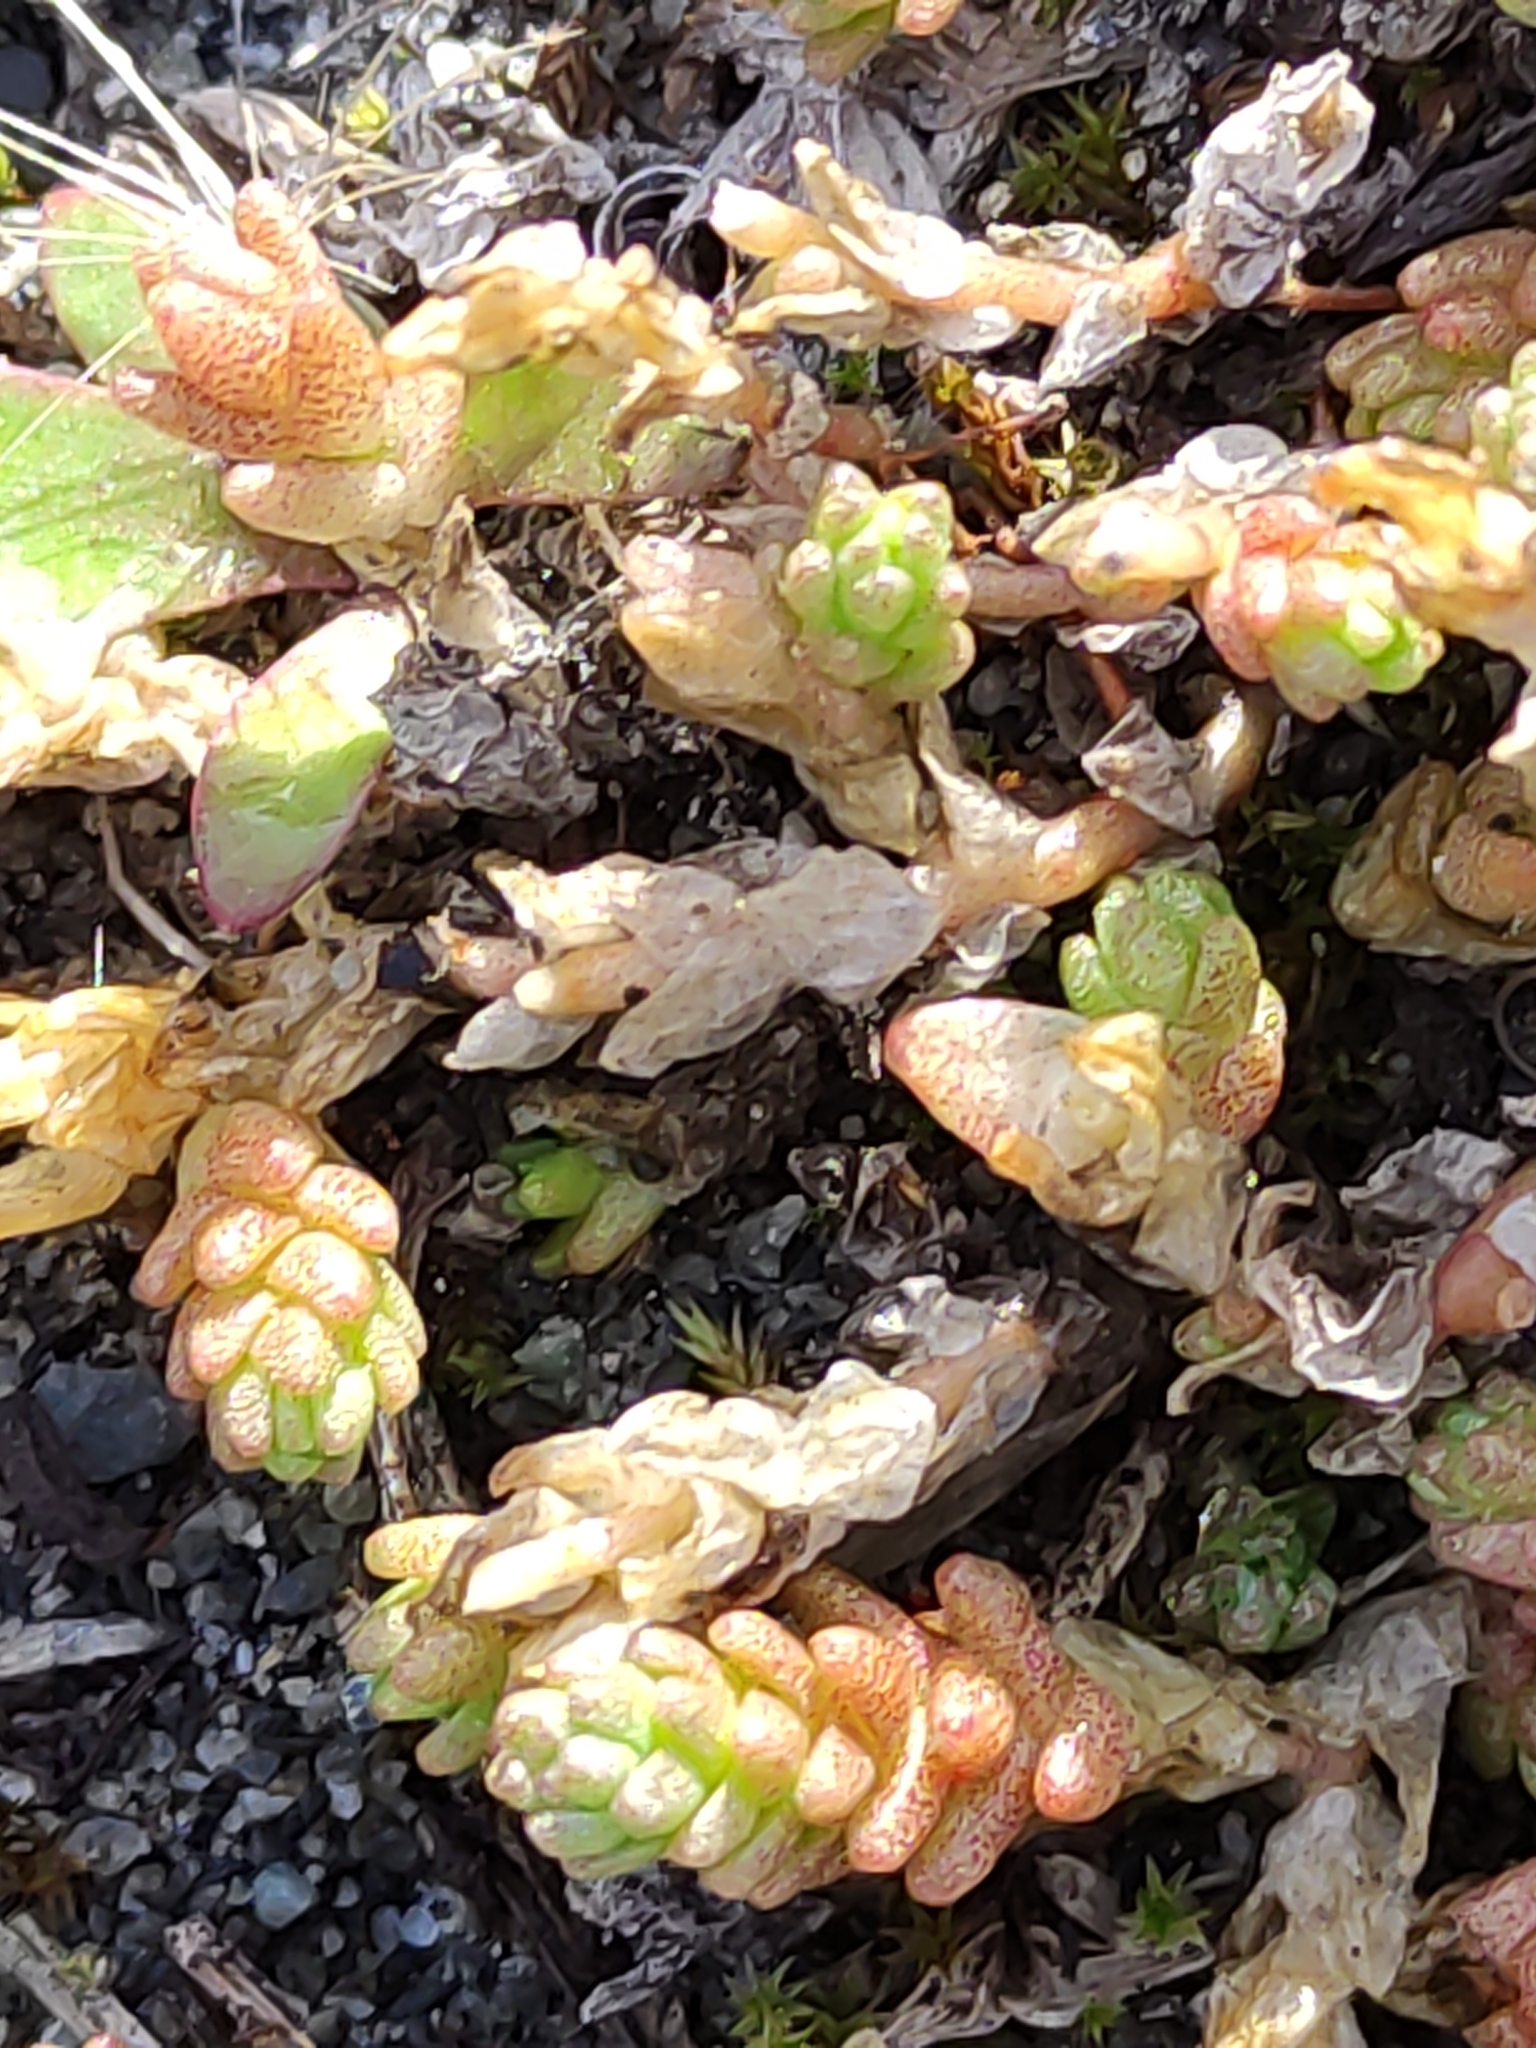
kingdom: Plantae
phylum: Tracheophyta
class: Magnoliopsida
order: Saxifragales
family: Crassulaceae
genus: Sedum
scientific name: Sedum acre
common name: Biting stonecrop
